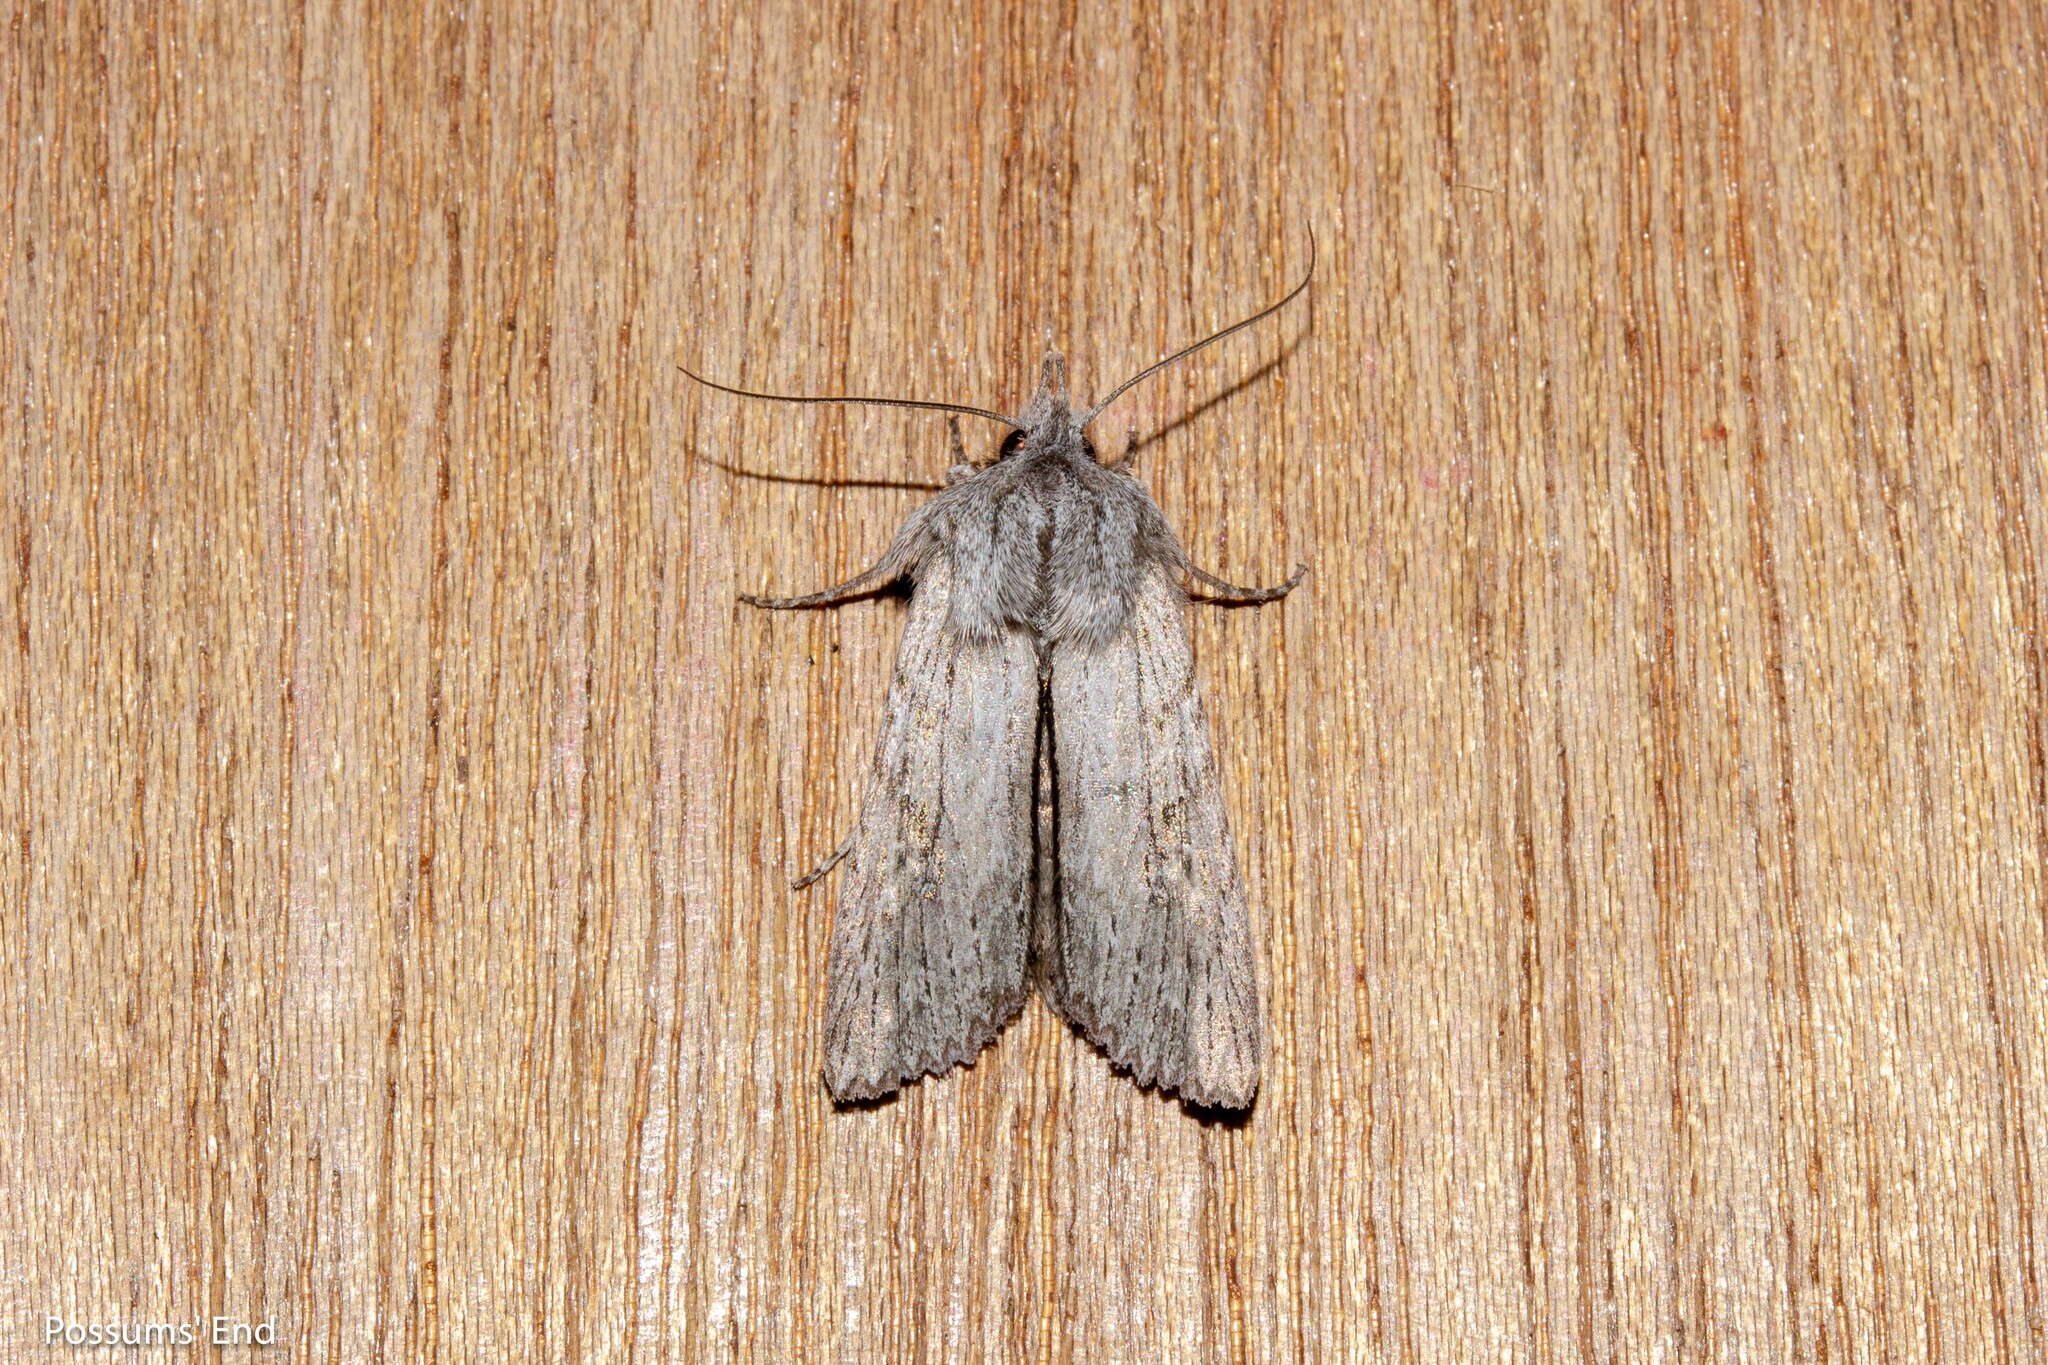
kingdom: Animalia
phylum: Arthropoda
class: Insecta
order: Lepidoptera
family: Noctuidae
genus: Physetica
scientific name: Physetica phricias
